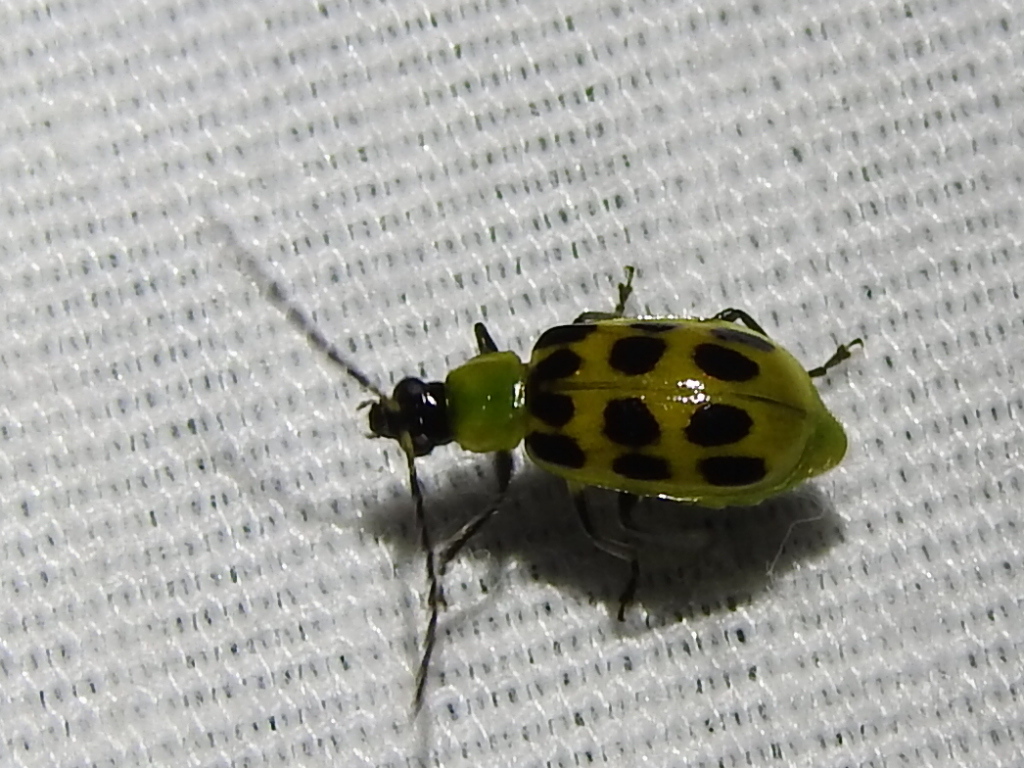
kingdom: Animalia
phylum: Arthropoda
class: Insecta
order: Coleoptera
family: Chrysomelidae
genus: Diabrotica
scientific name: Diabrotica undecimpunctata
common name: Spotted cucumber beetle
